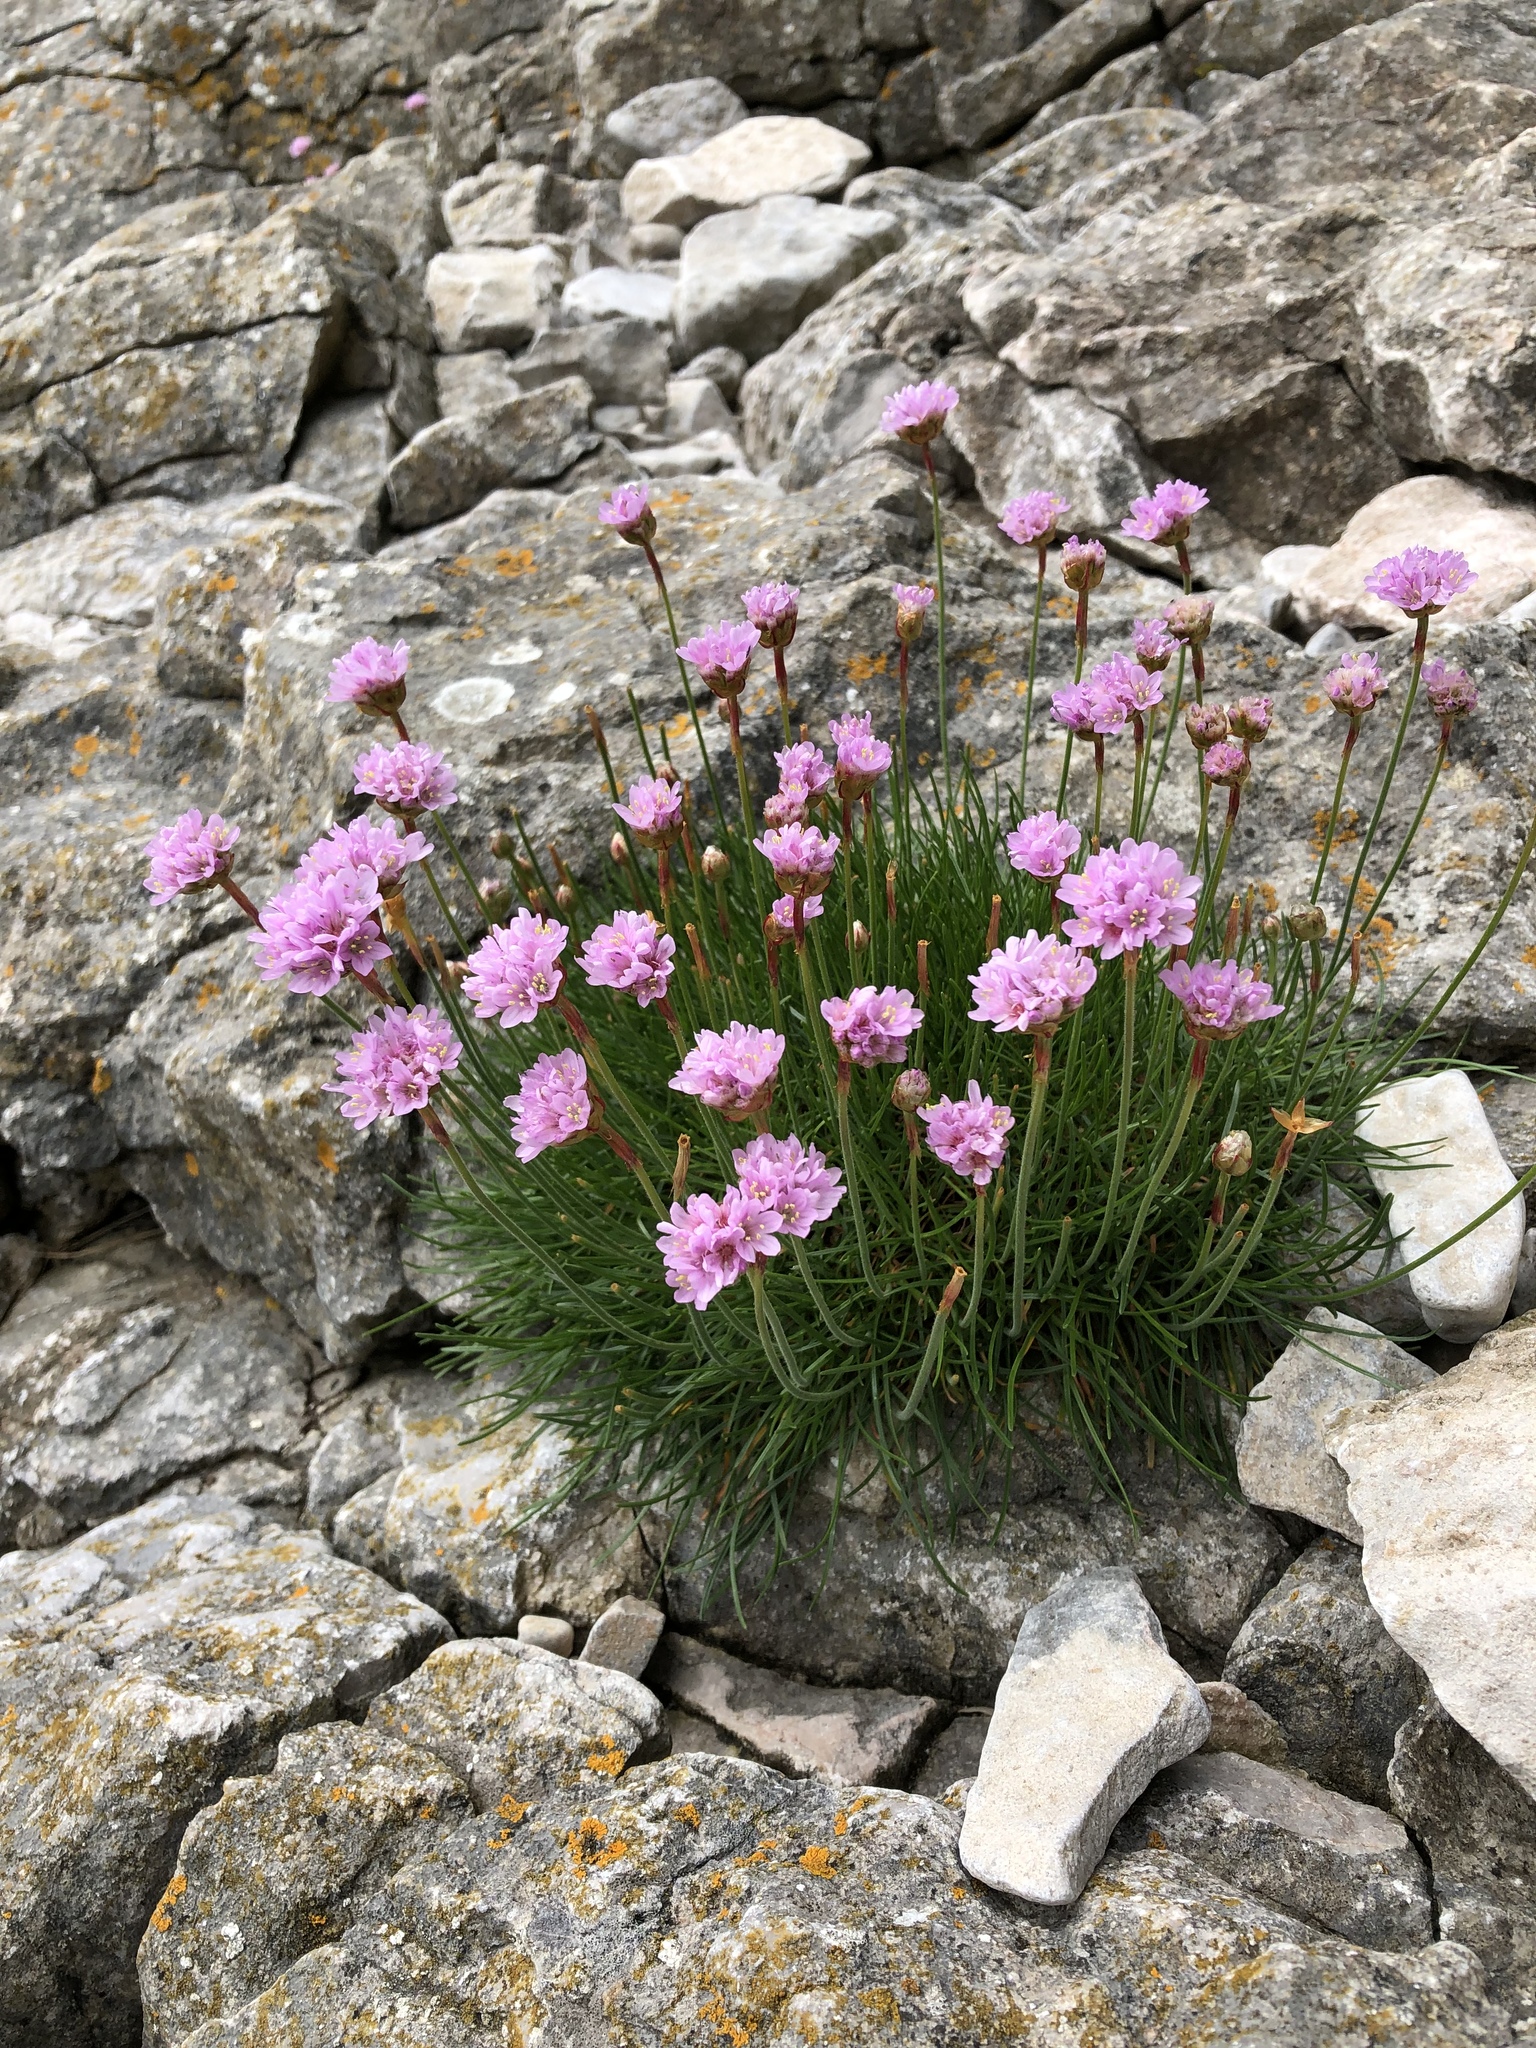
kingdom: Plantae
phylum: Tracheophyta
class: Magnoliopsida
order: Caryophyllales
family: Plumbaginaceae
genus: Armeria
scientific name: Armeria maritima
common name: Thrift
